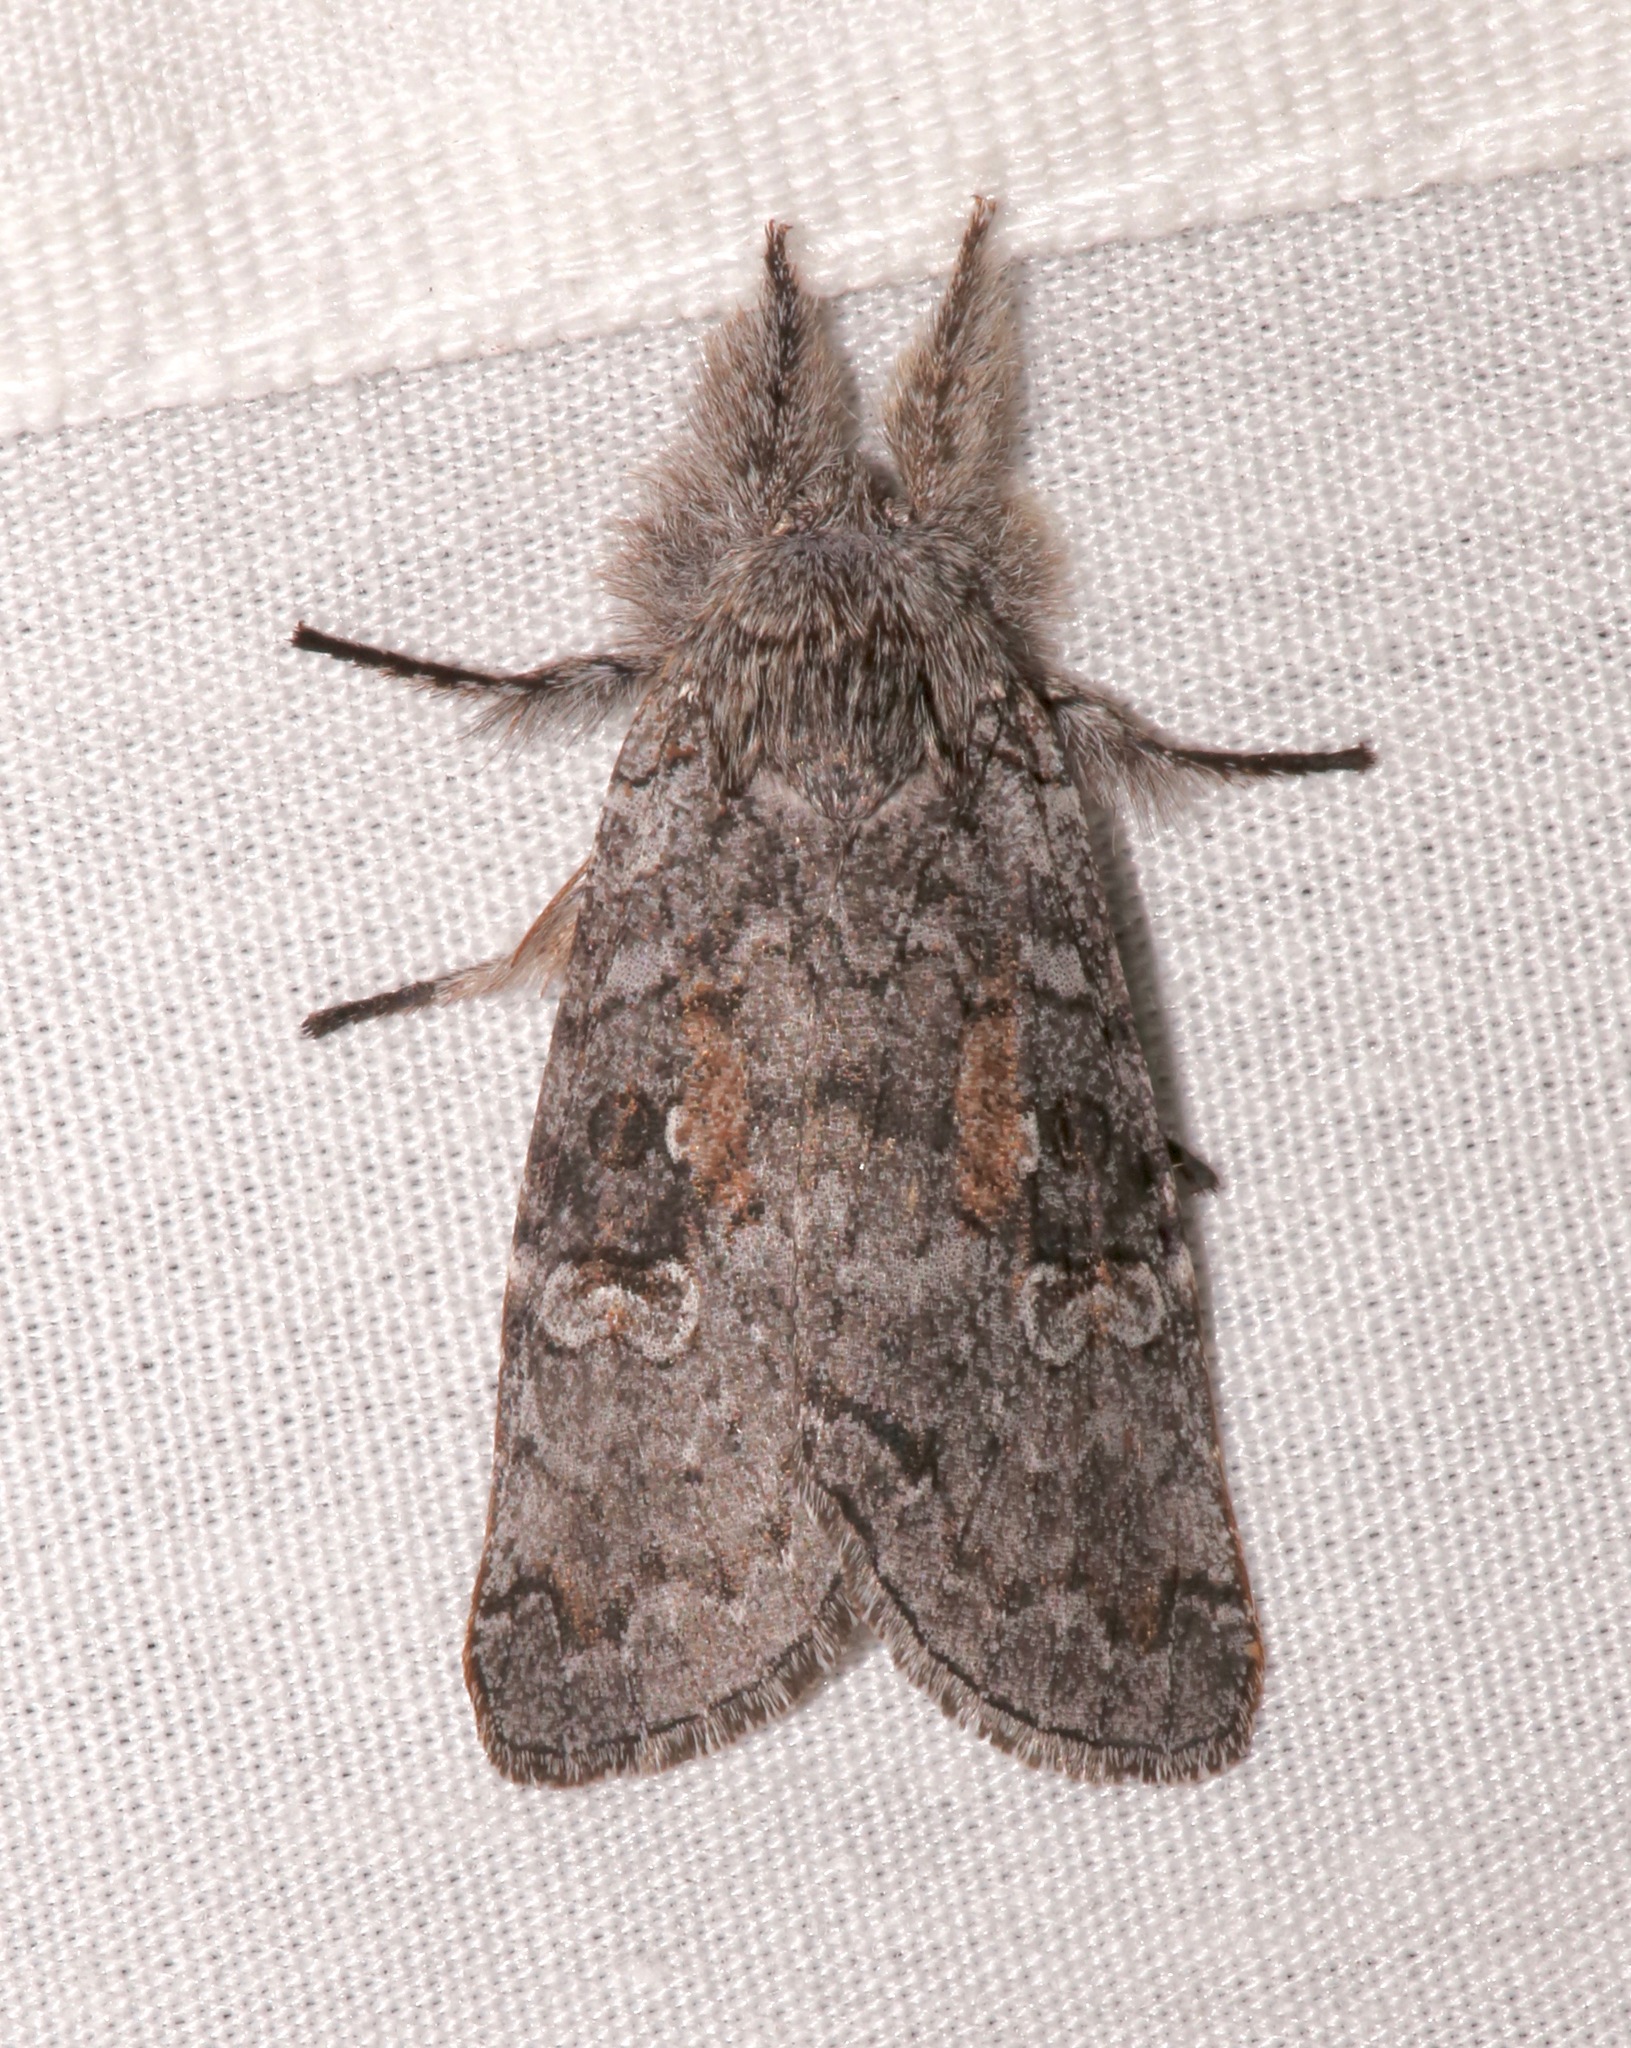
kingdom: Animalia
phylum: Arthropoda
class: Insecta
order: Lepidoptera
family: Noctuidae
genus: Meleneta
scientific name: Meleneta antennata
